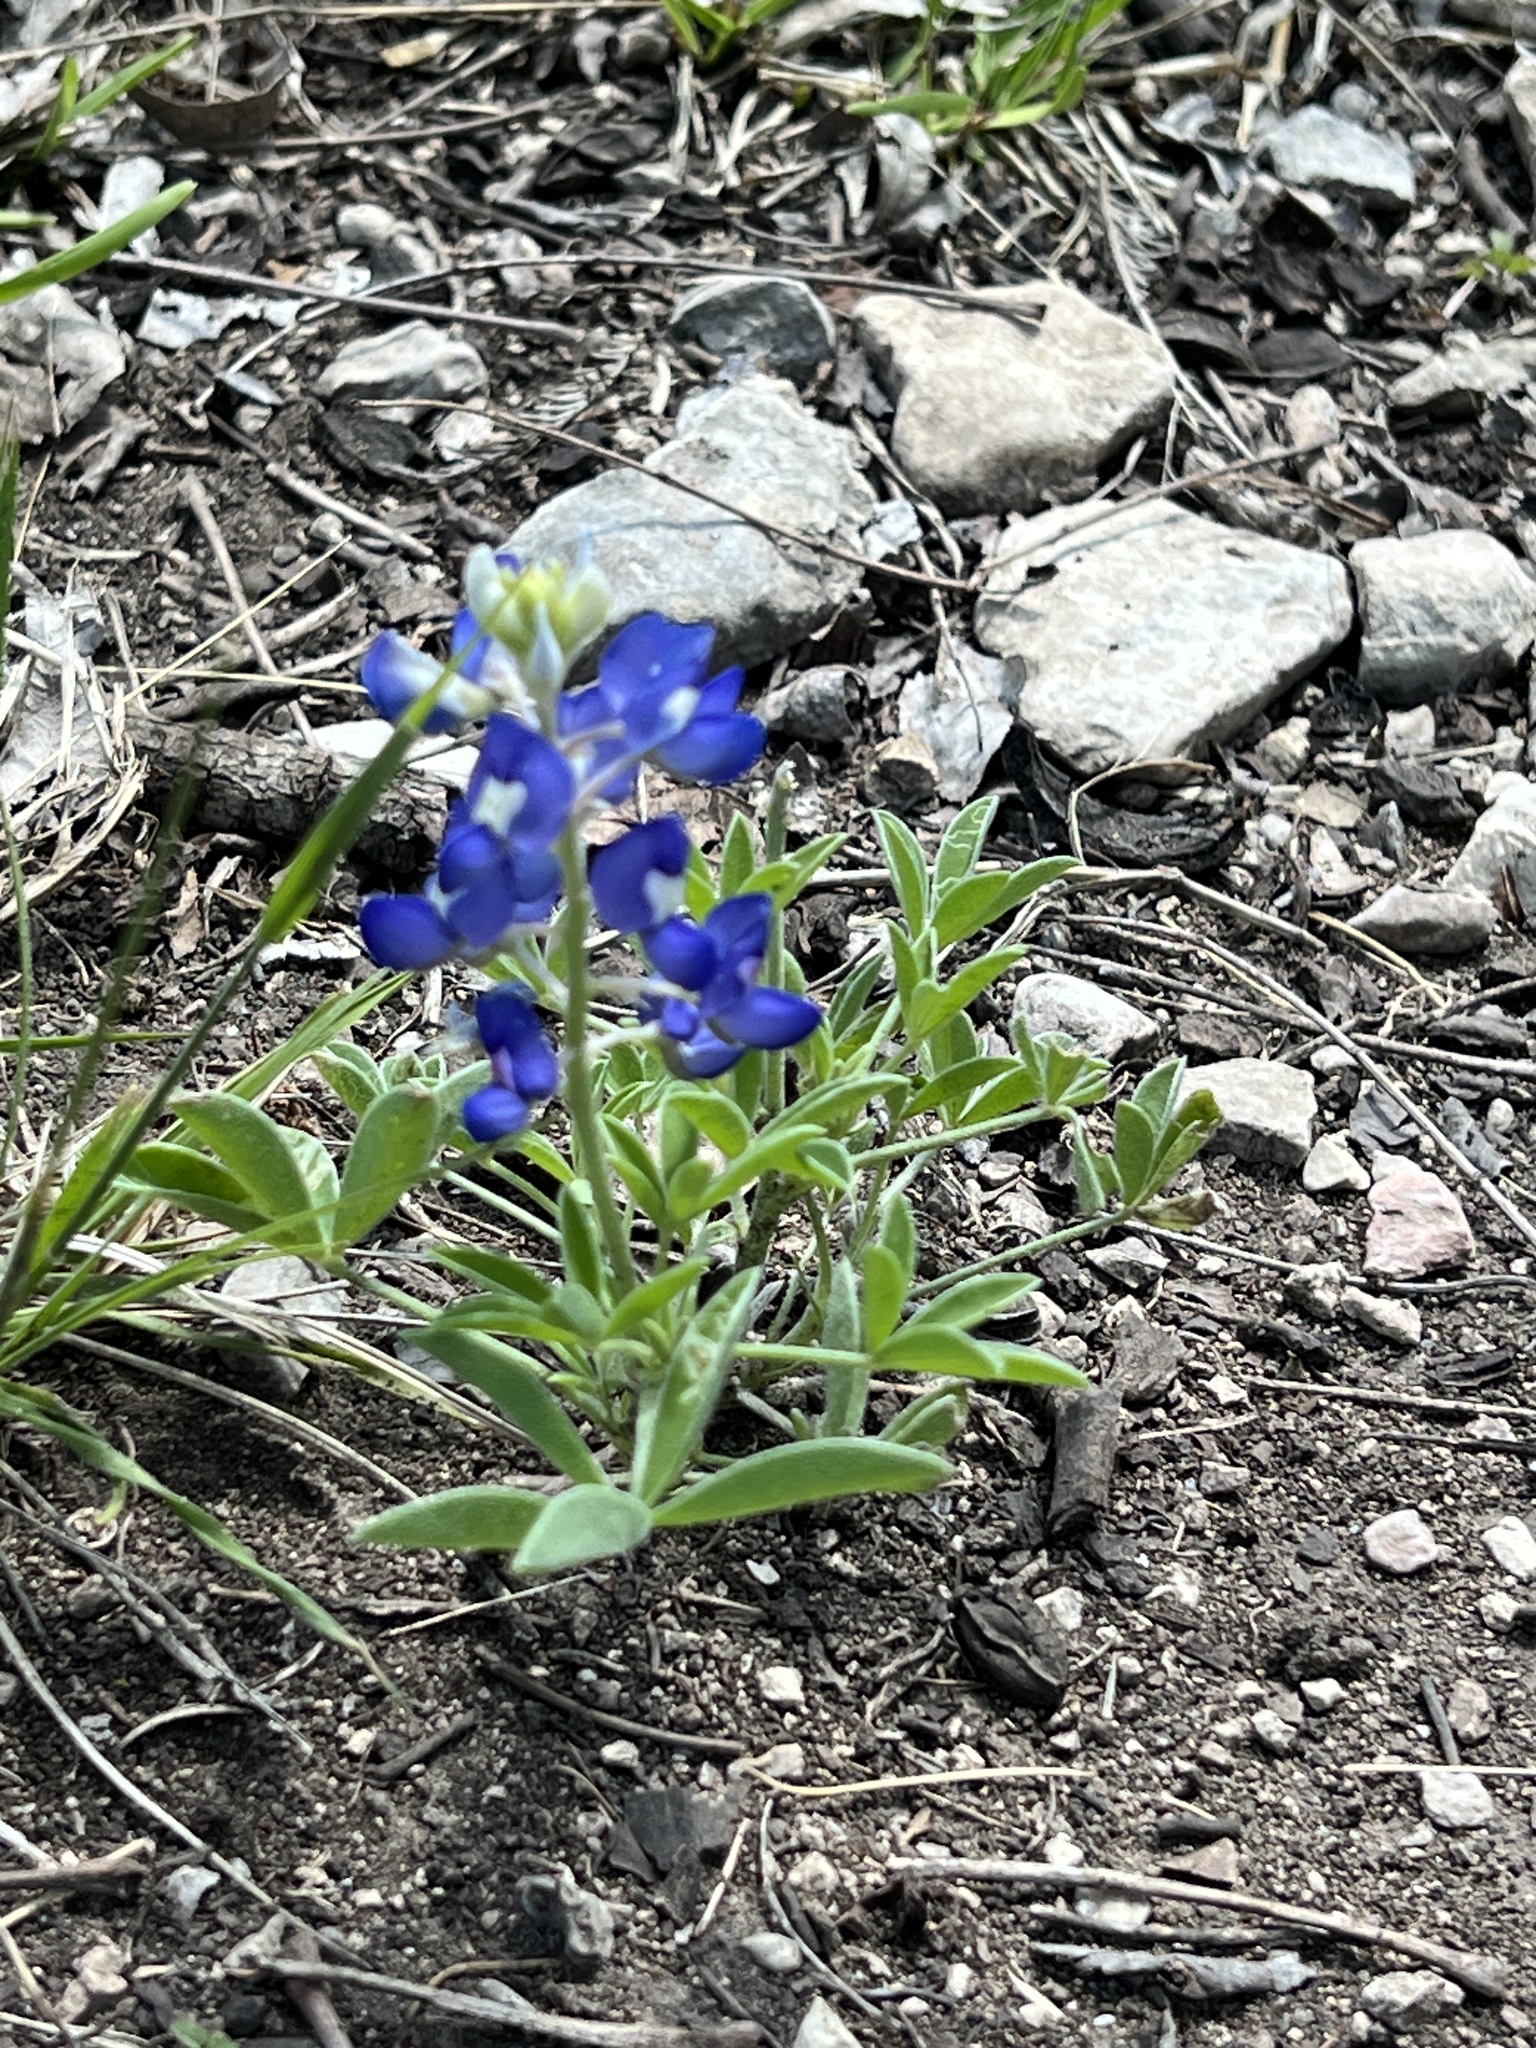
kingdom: Plantae
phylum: Tracheophyta
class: Magnoliopsida
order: Fabales
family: Fabaceae
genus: Lupinus
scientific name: Lupinus texensis
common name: Texas bluebonnet
